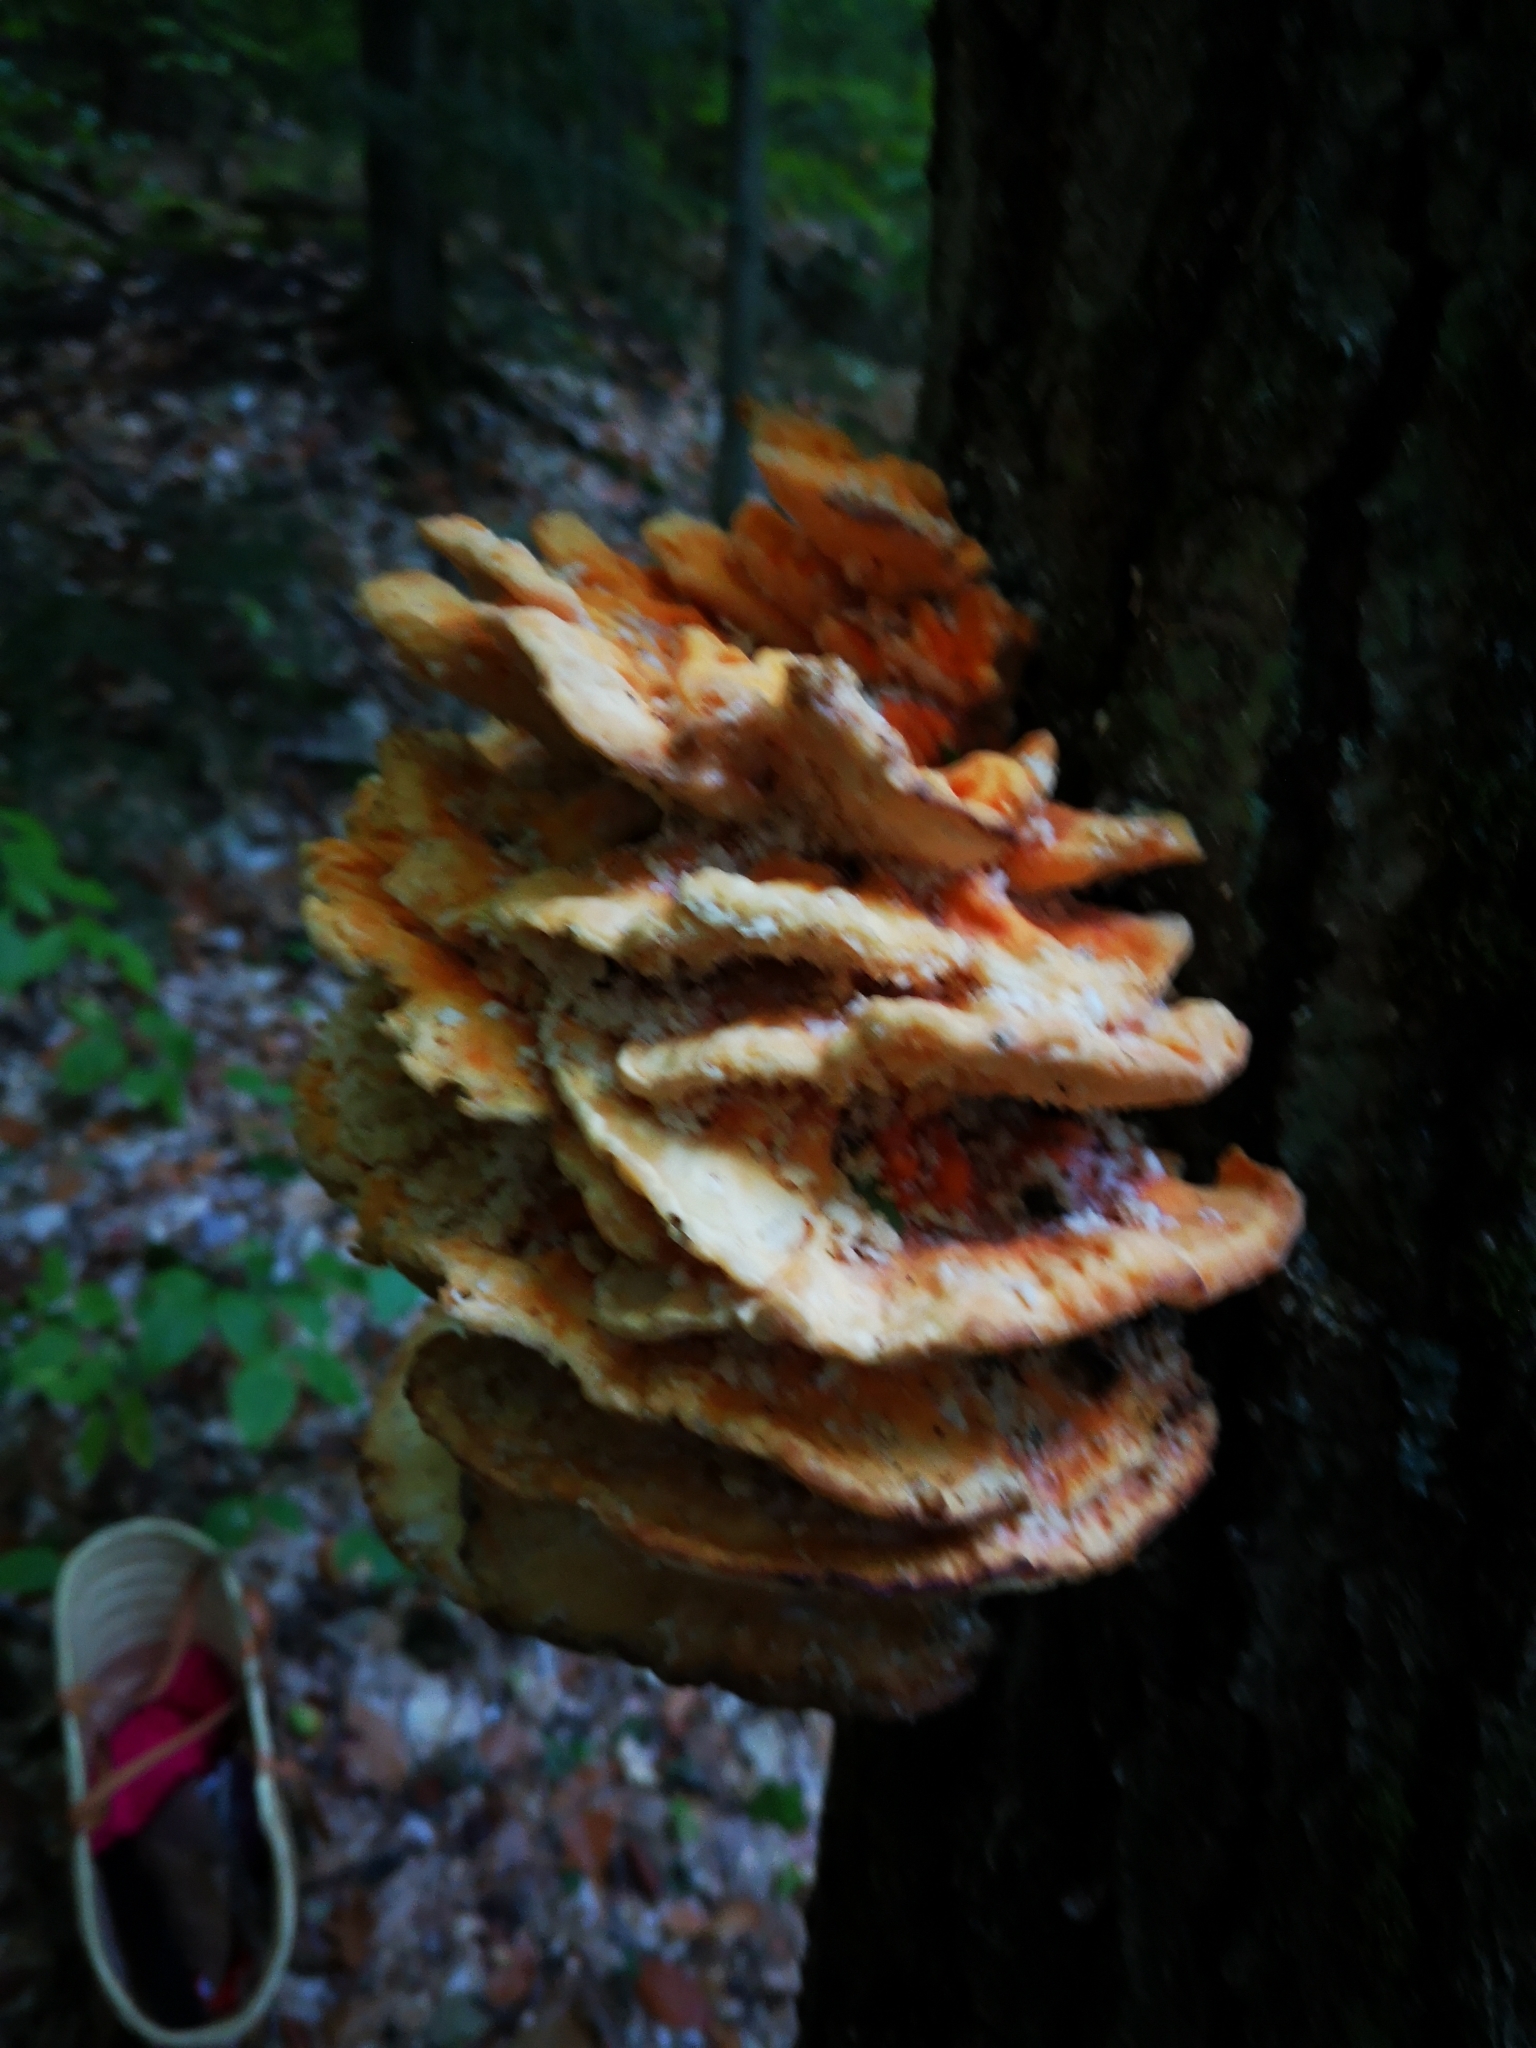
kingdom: Fungi
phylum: Basidiomycota
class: Agaricomycetes
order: Polyporales
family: Laetiporaceae
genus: Laetiporus
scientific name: Laetiporus sulphureus
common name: Chicken of the woods
